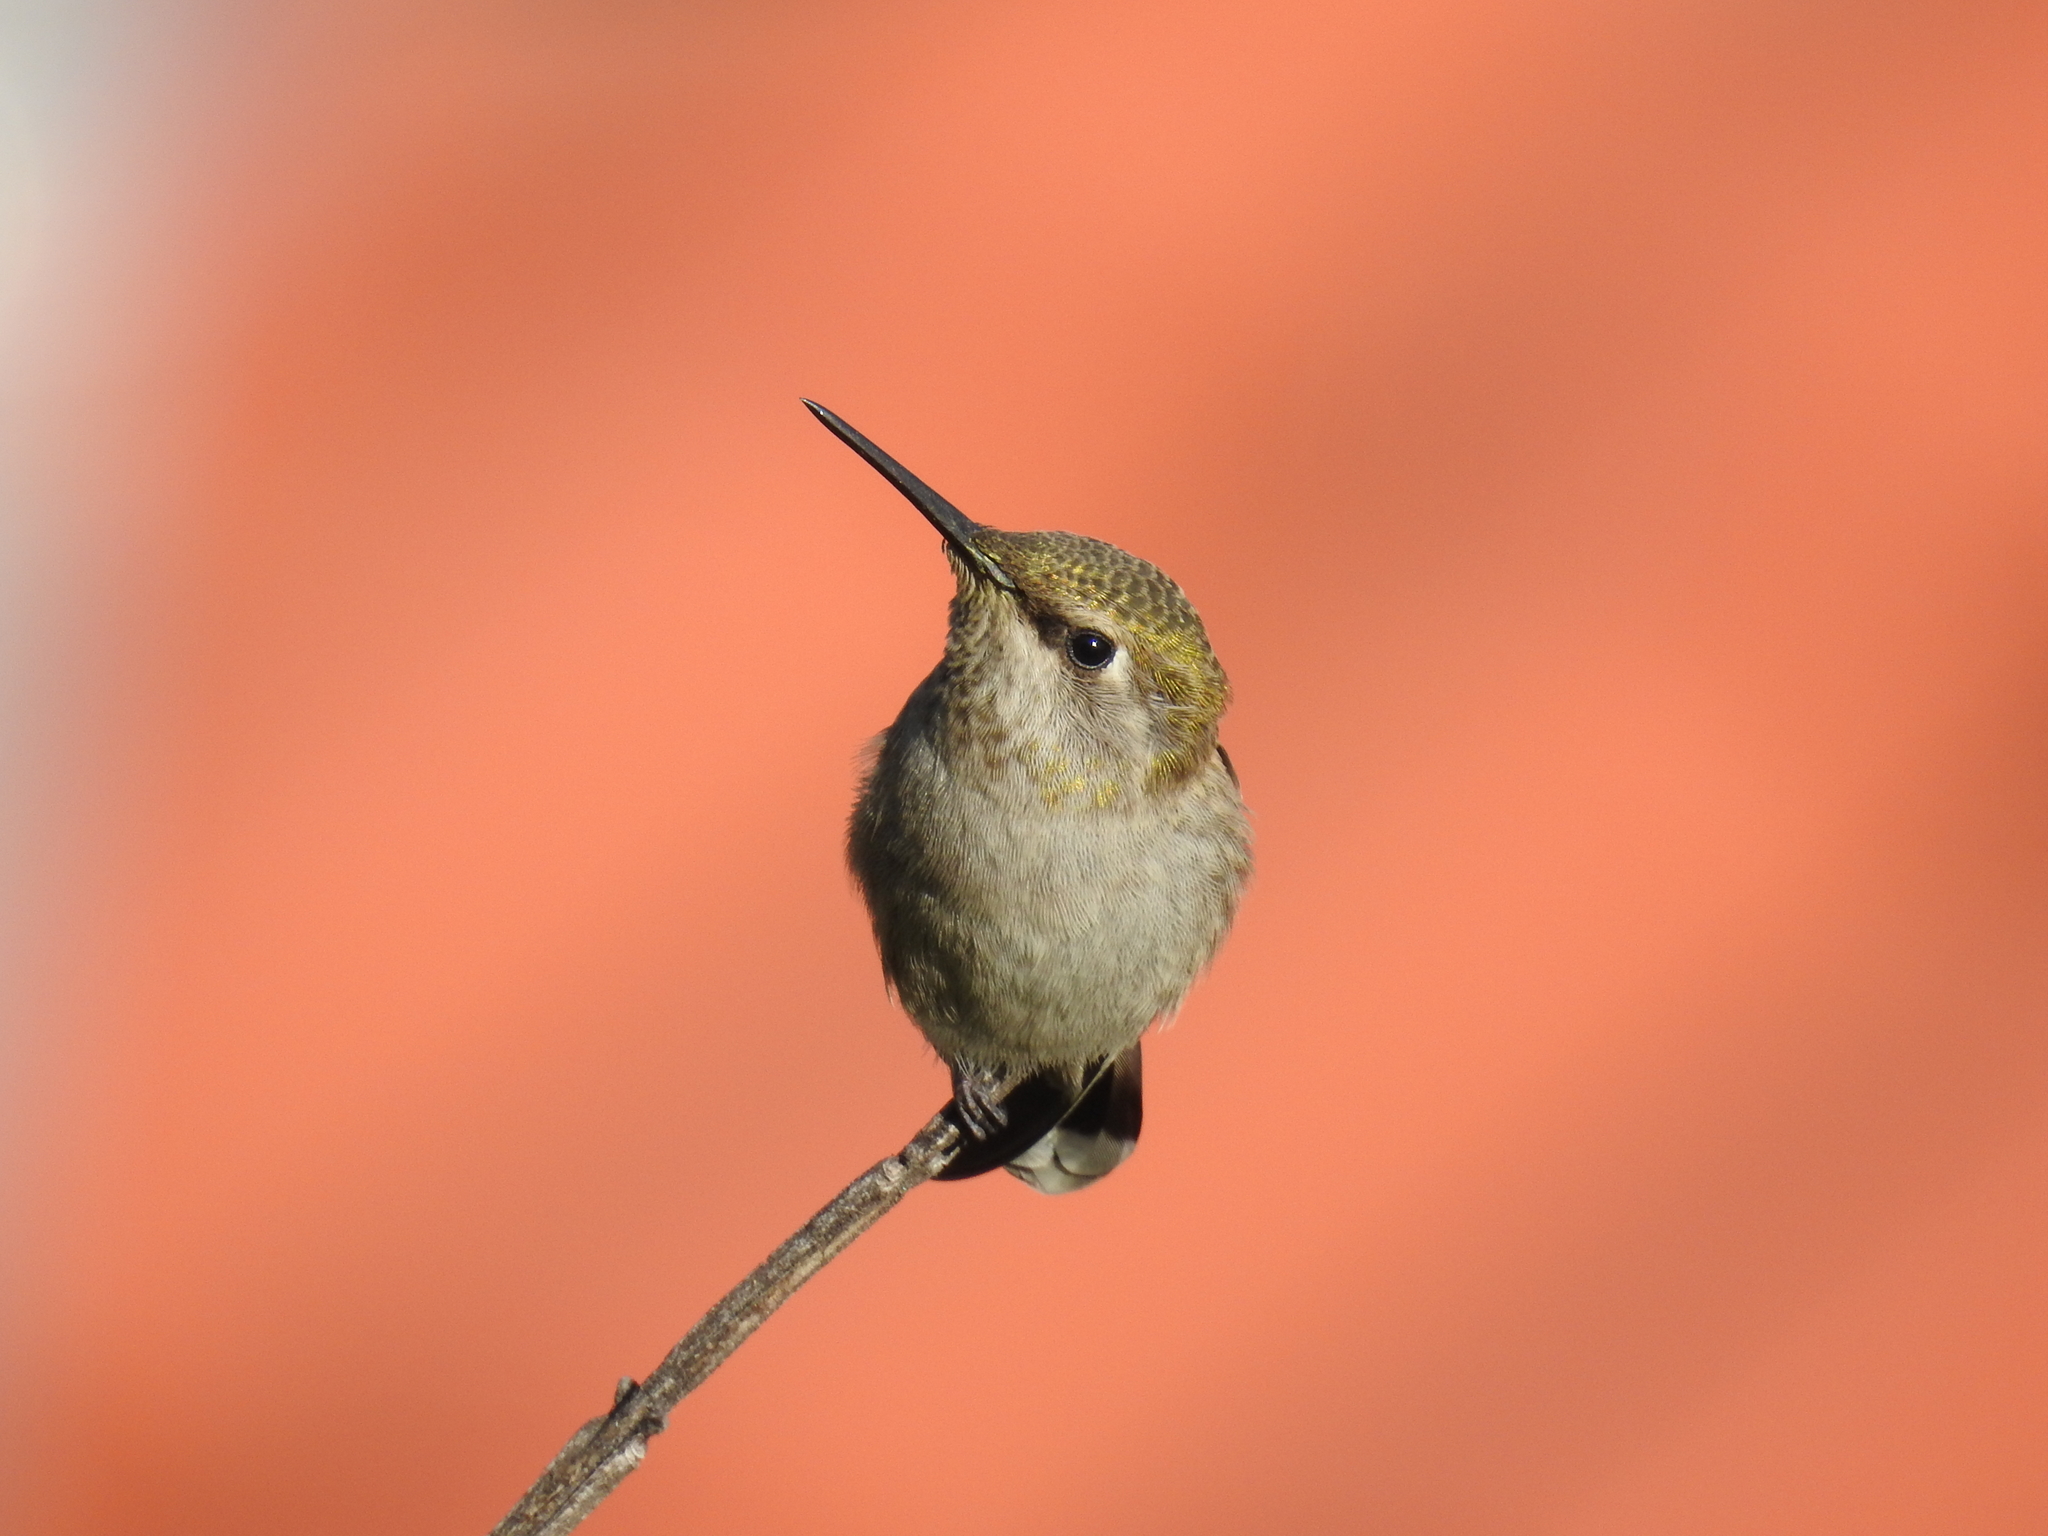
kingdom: Animalia
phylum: Chordata
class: Aves
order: Apodiformes
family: Trochilidae
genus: Calypte
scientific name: Calypte costae
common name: Costa's hummingbird
